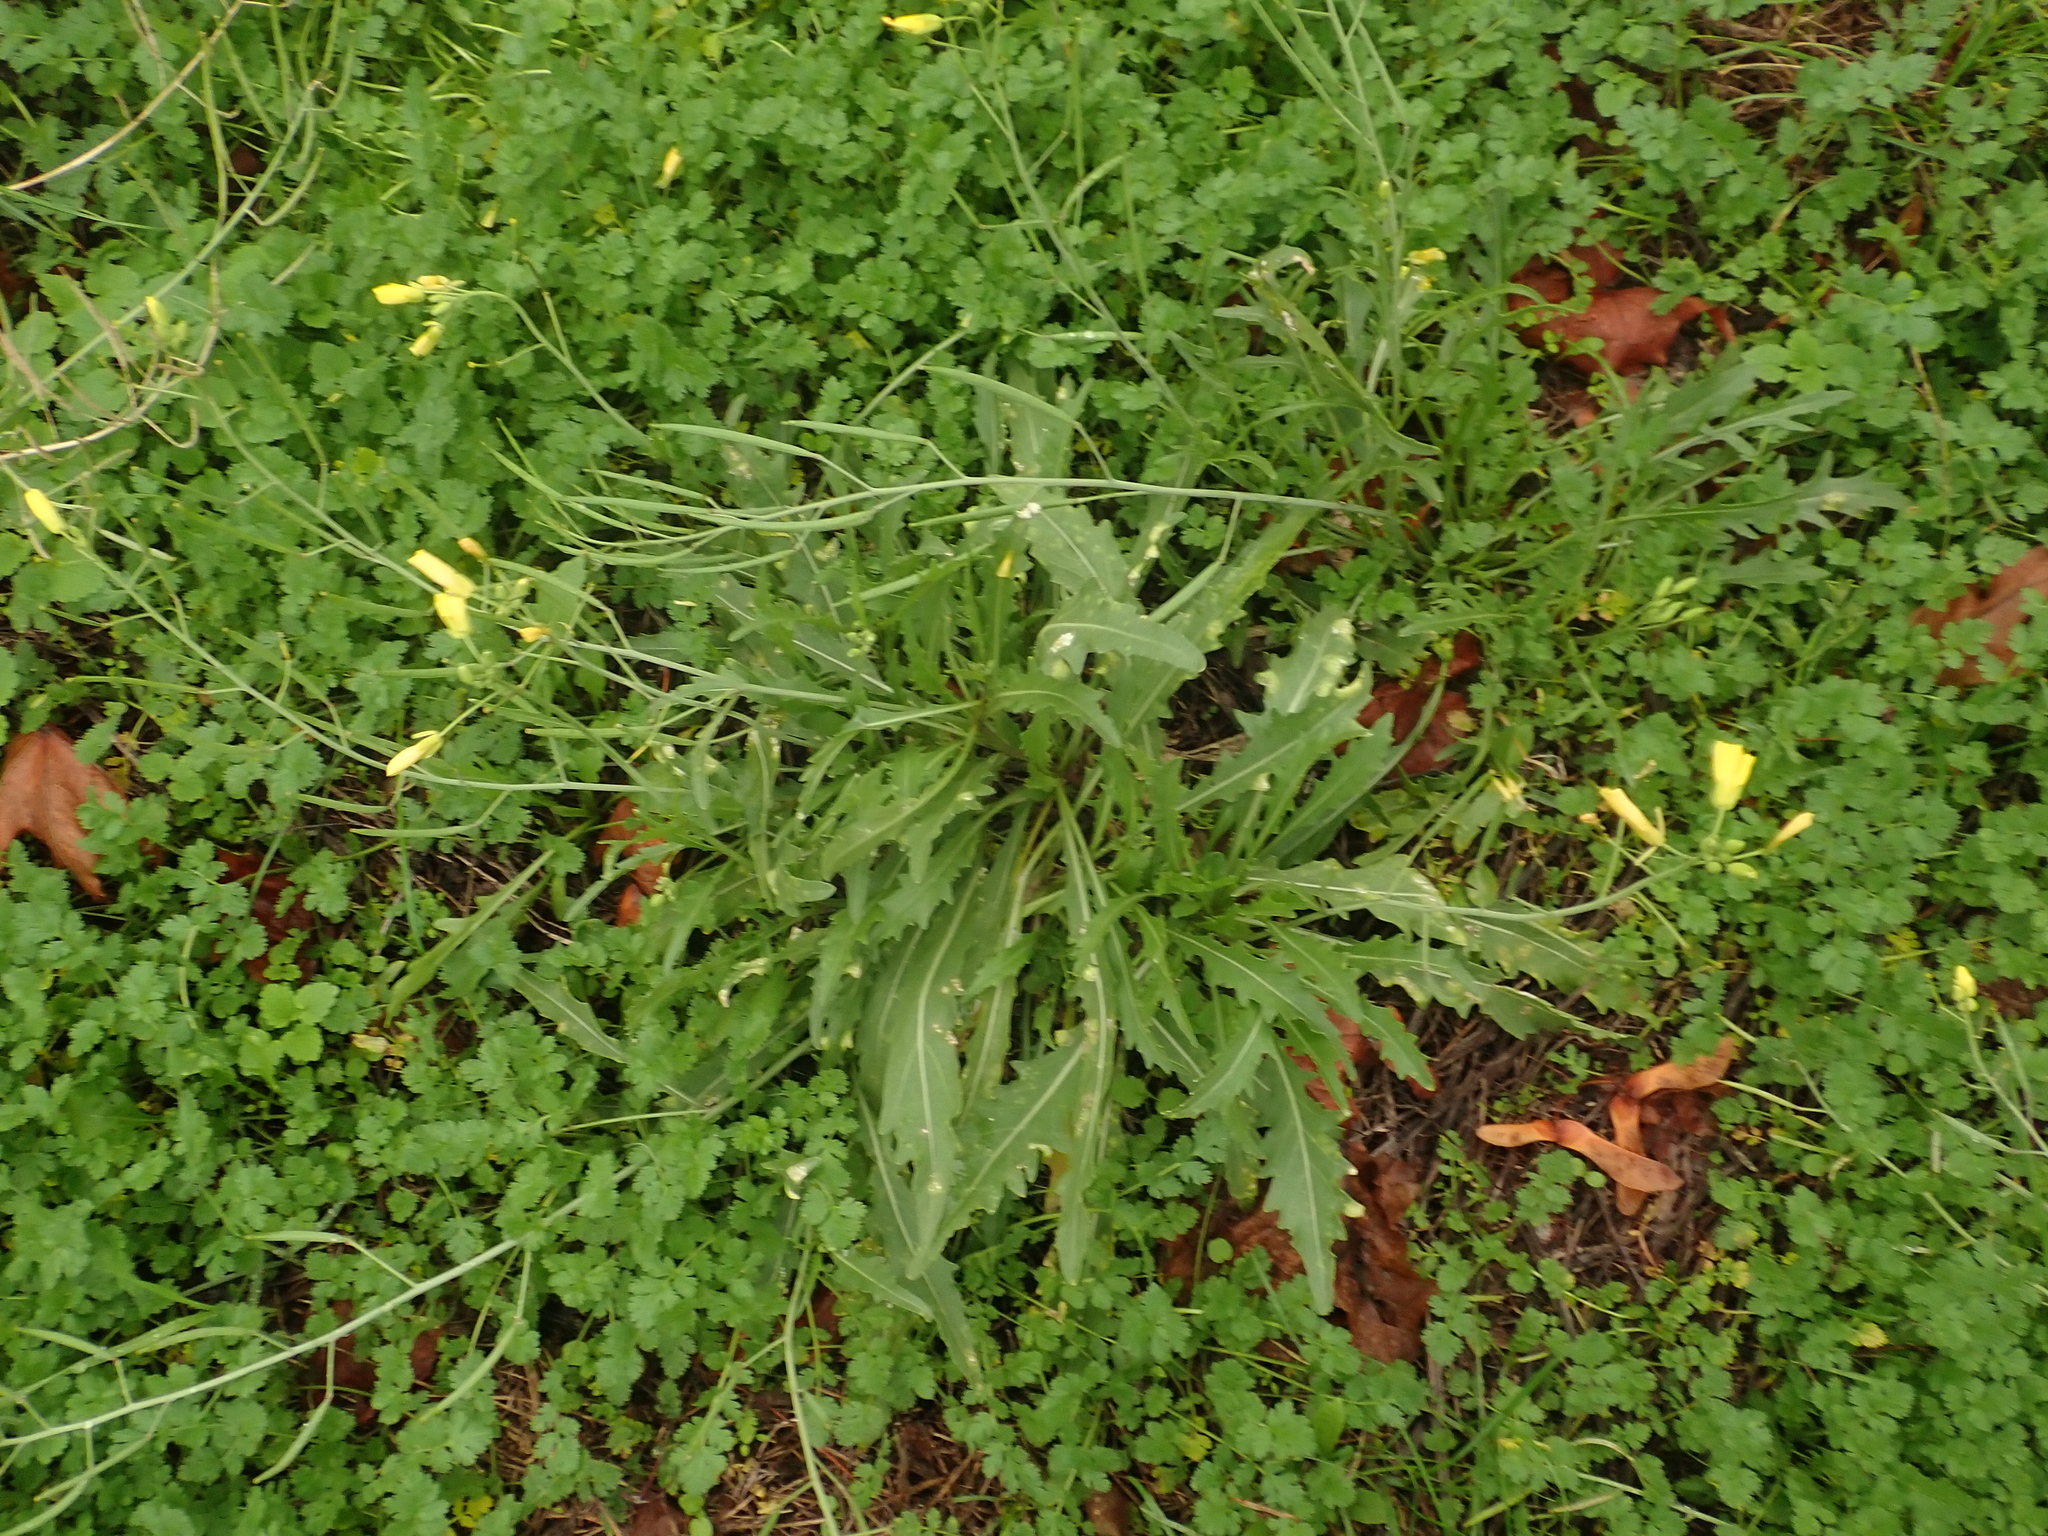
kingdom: Plantae
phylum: Tracheophyta
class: Magnoliopsida
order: Brassicales
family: Brassicaceae
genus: Diplotaxis
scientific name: Diplotaxis tenuifolia
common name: Perennial wall-rocket
